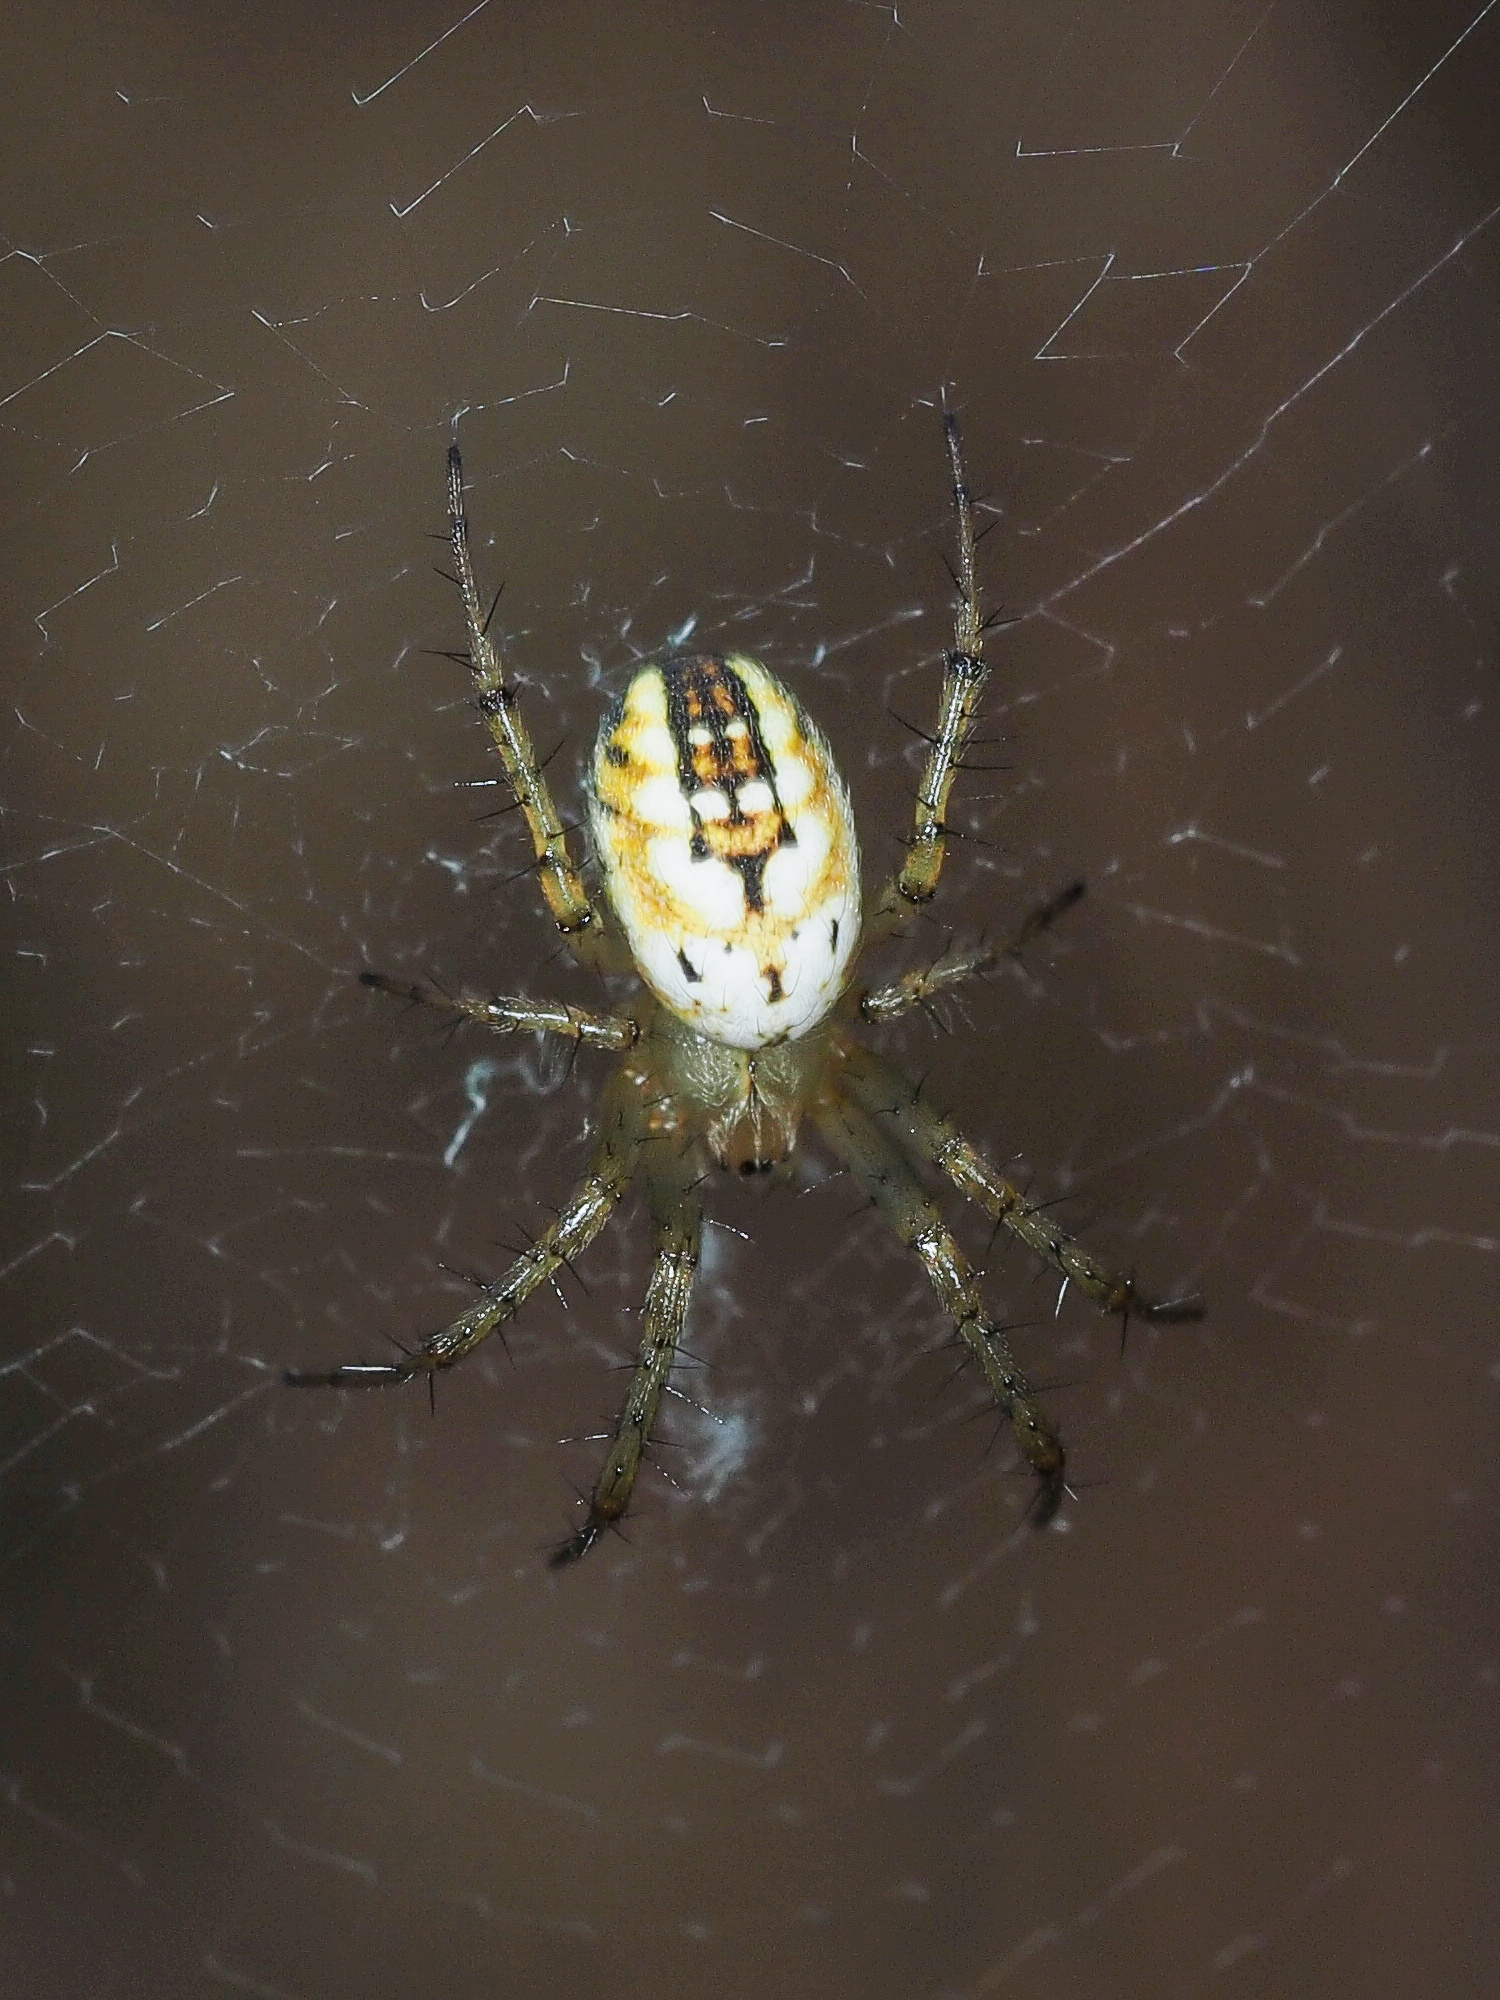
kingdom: Animalia
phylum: Arthropoda
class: Arachnida
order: Araneae
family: Araneidae
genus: Mangora
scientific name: Mangora acalypha
